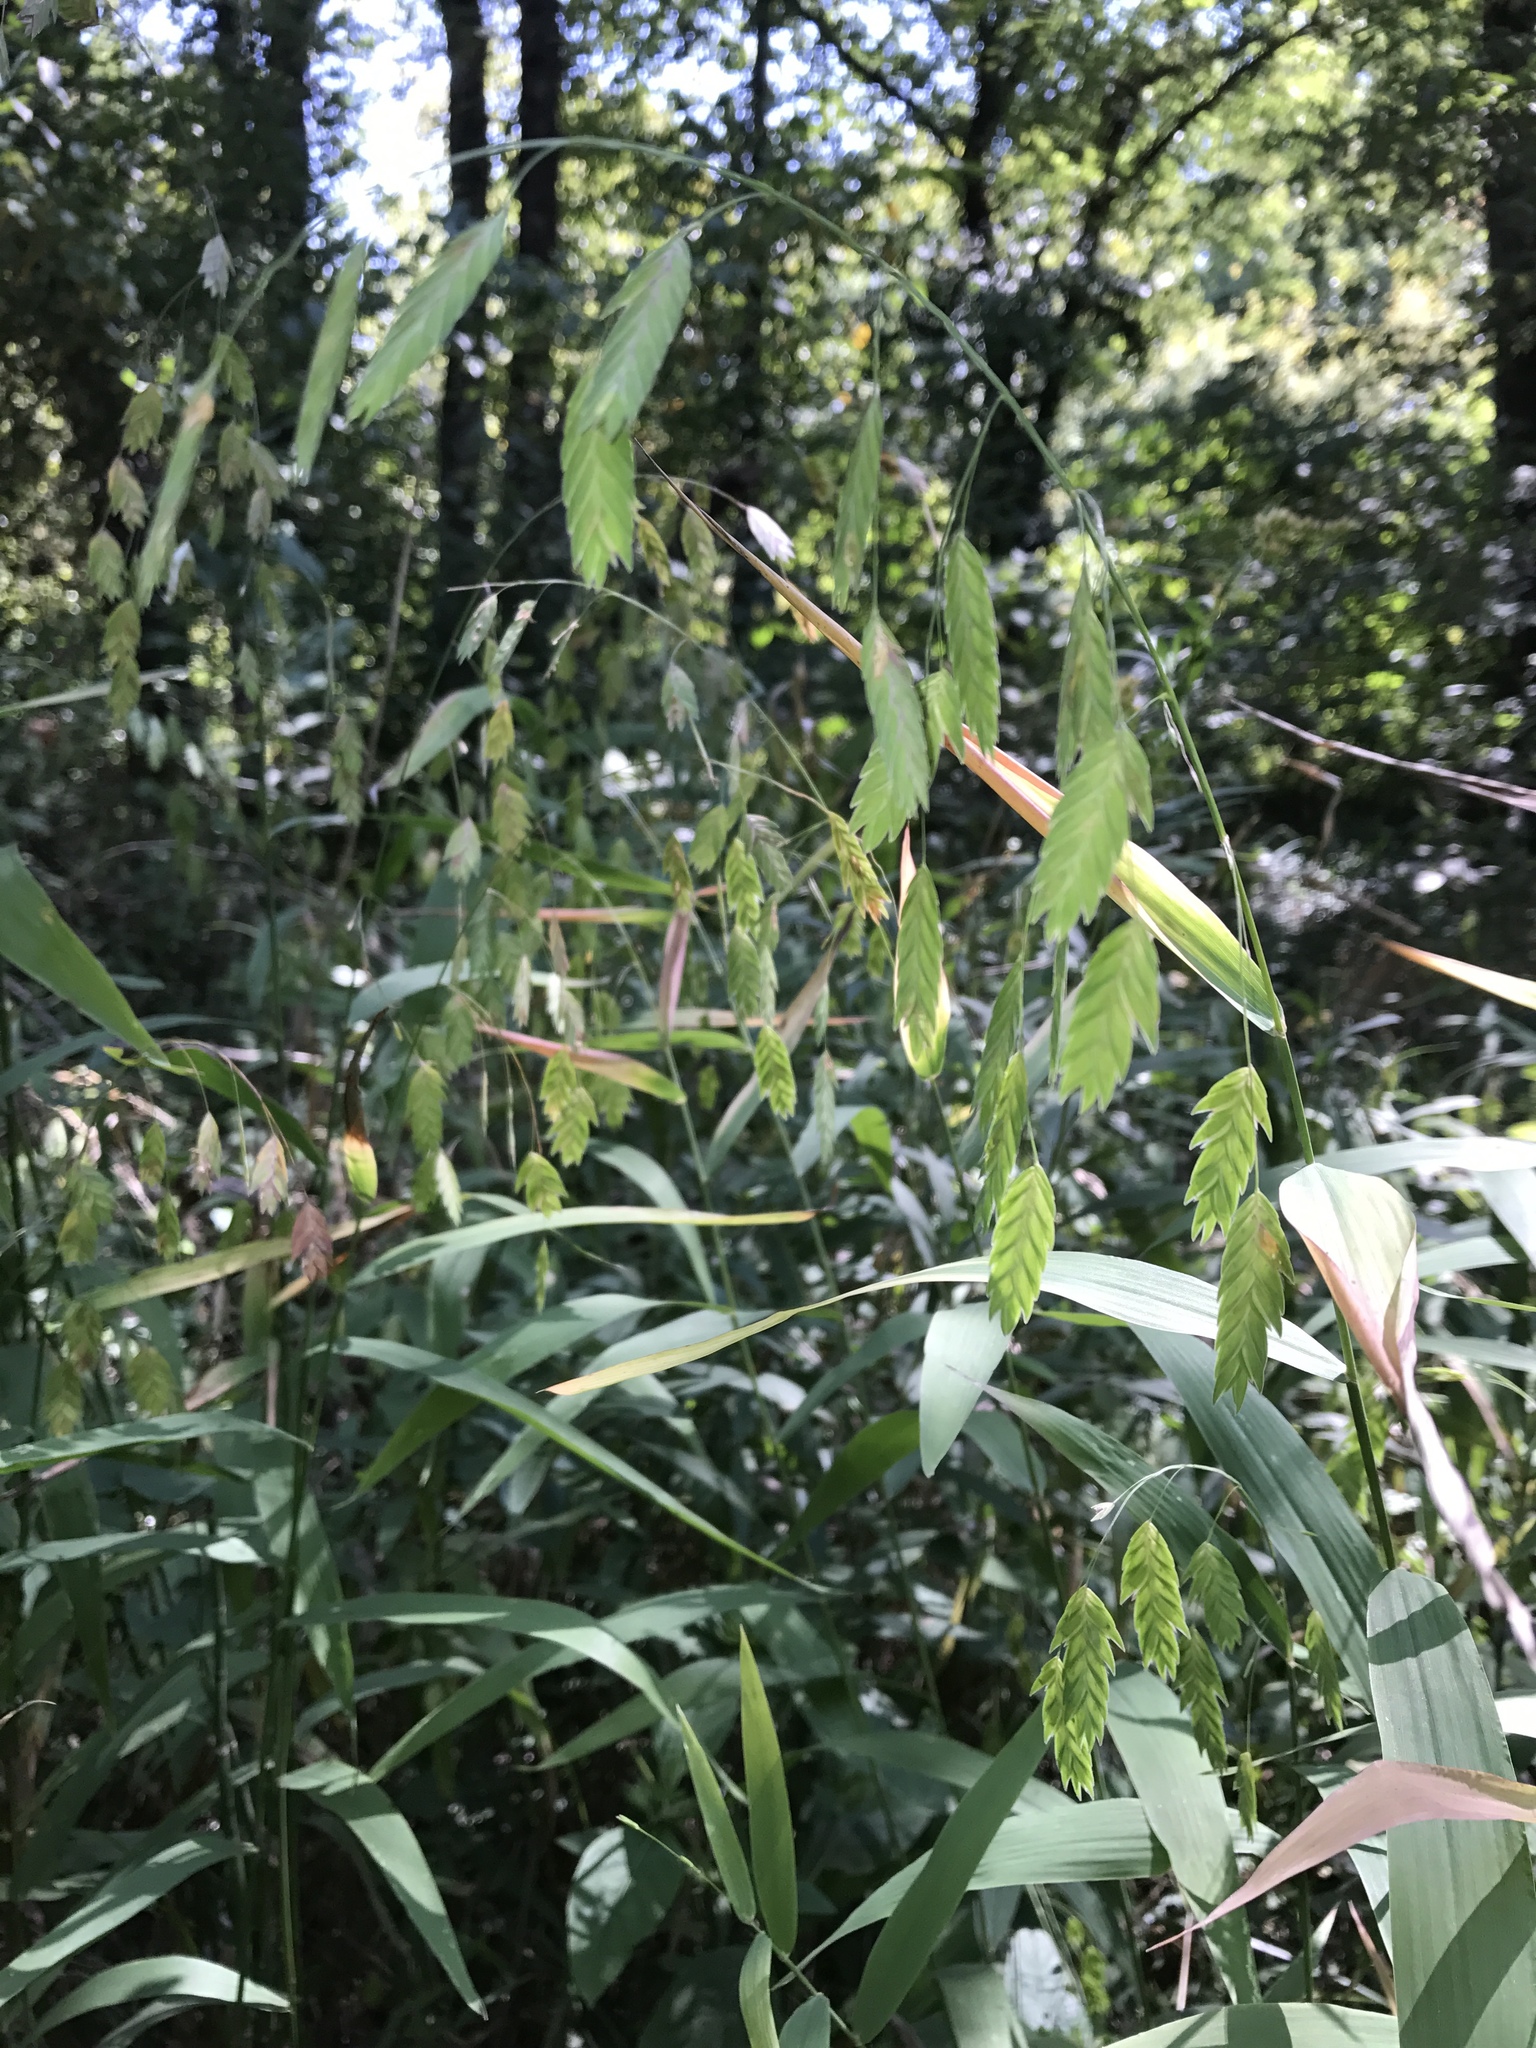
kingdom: Plantae
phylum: Tracheophyta
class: Liliopsida
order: Poales
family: Poaceae
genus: Chasmanthium
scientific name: Chasmanthium latifolium
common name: Broad-leaved chasmanthium
